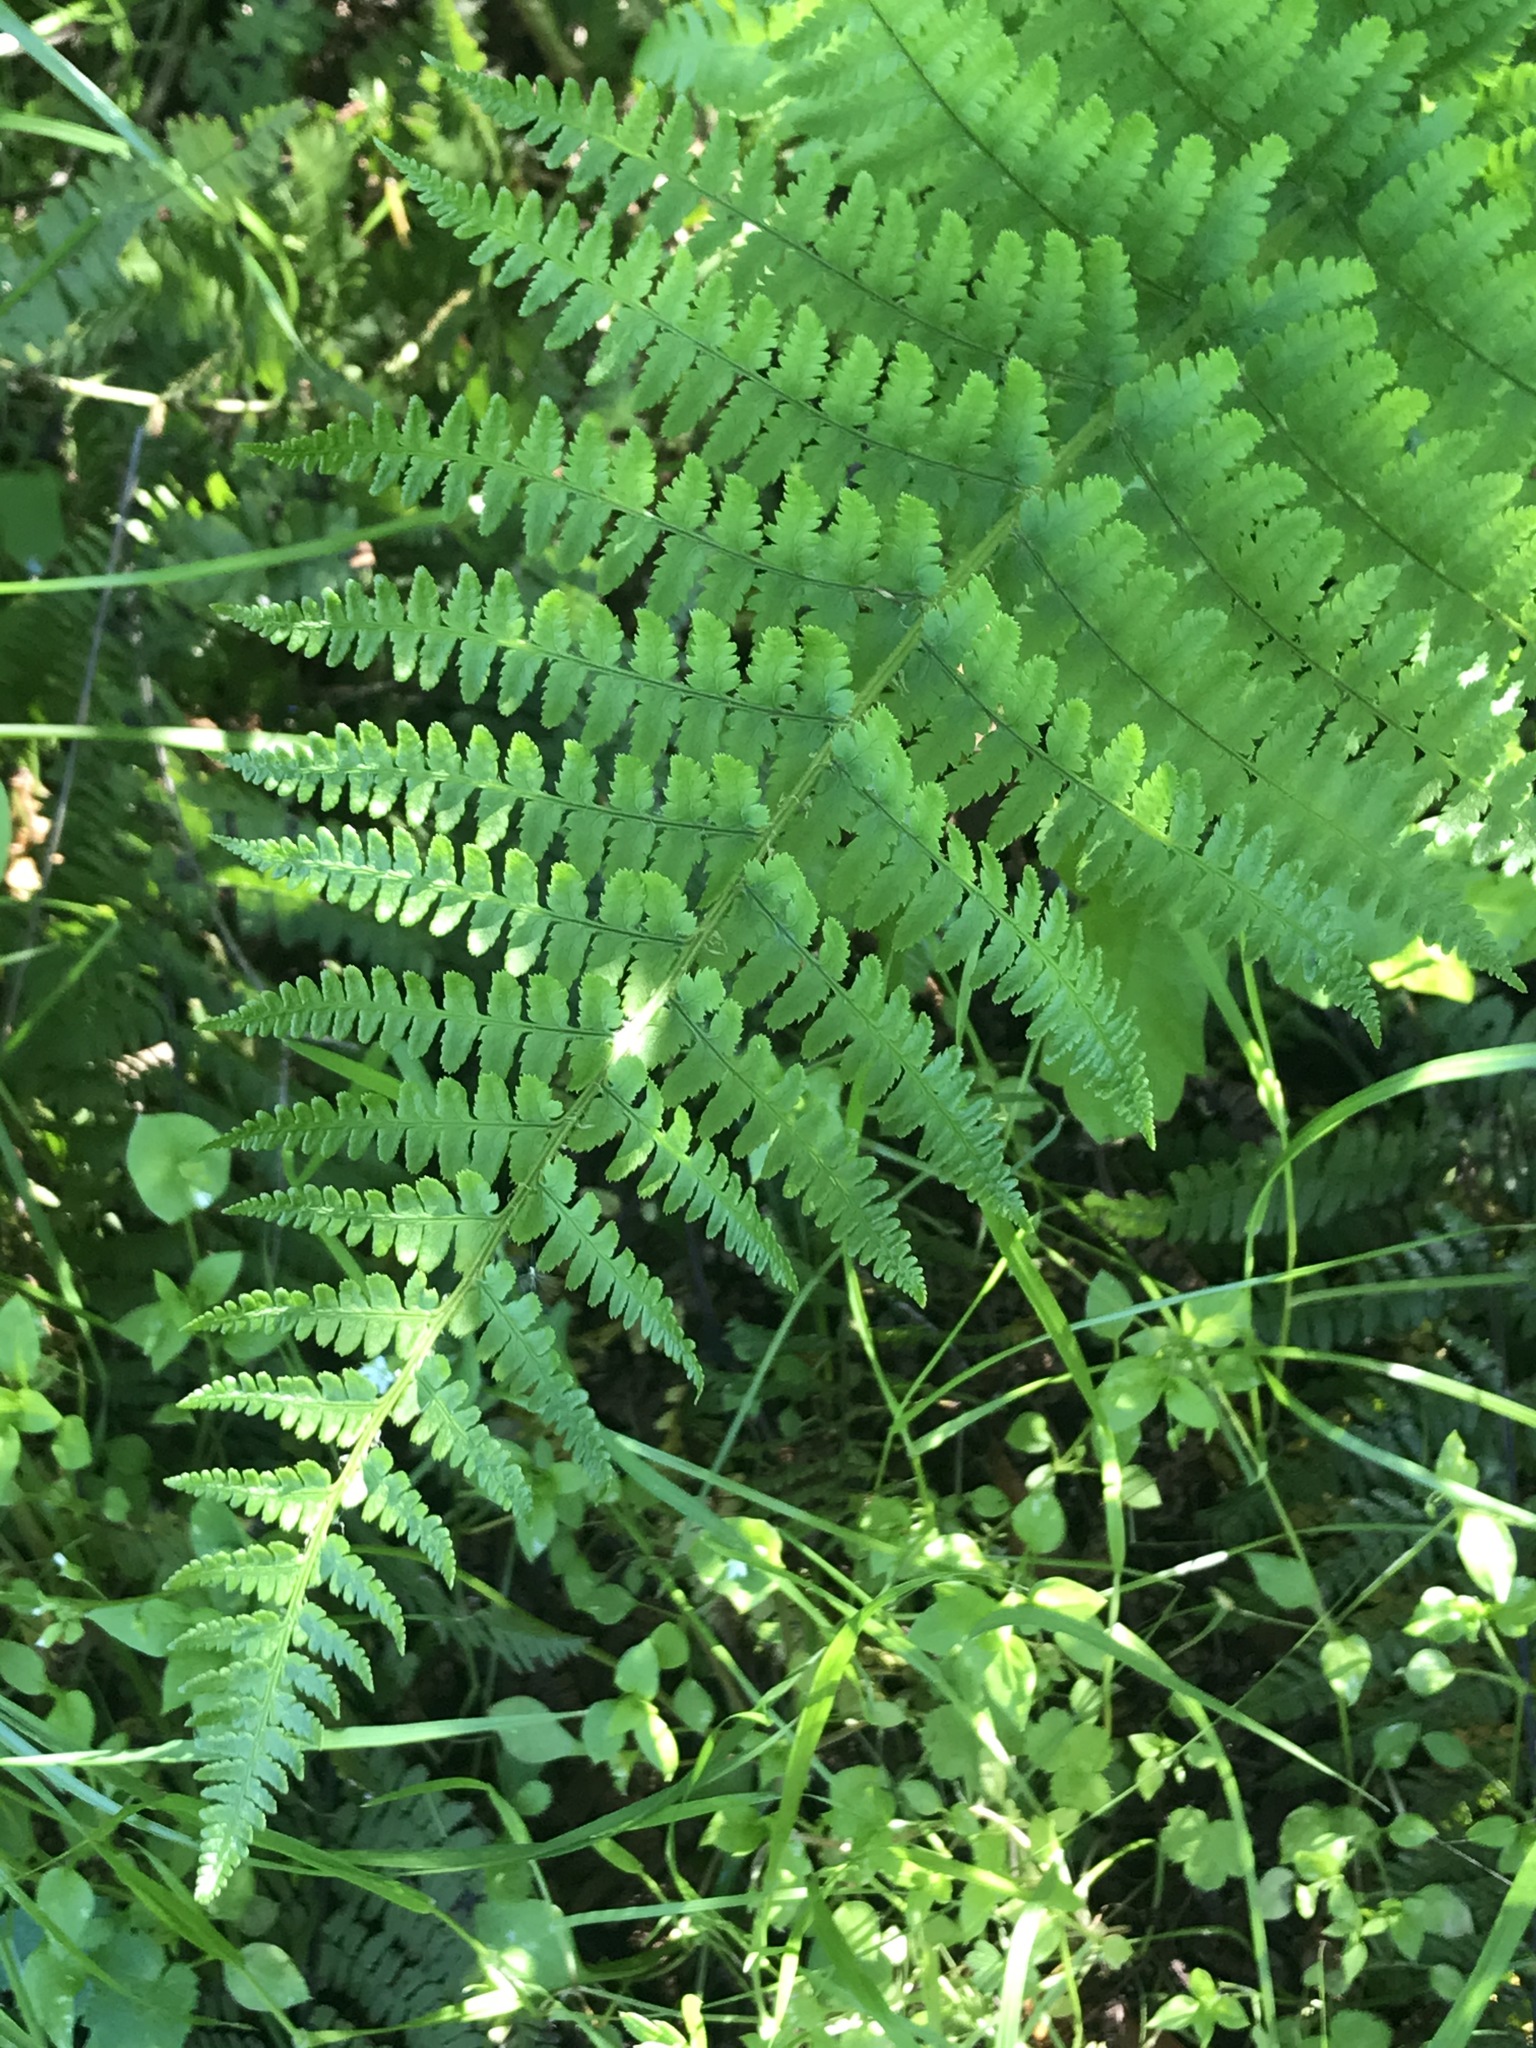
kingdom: Plantae
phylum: Tracheophyta
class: Polypodiopsida
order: Polypodiales
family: Dryopteridaceae
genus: Dryopteris
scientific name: Dryopteris arguta
